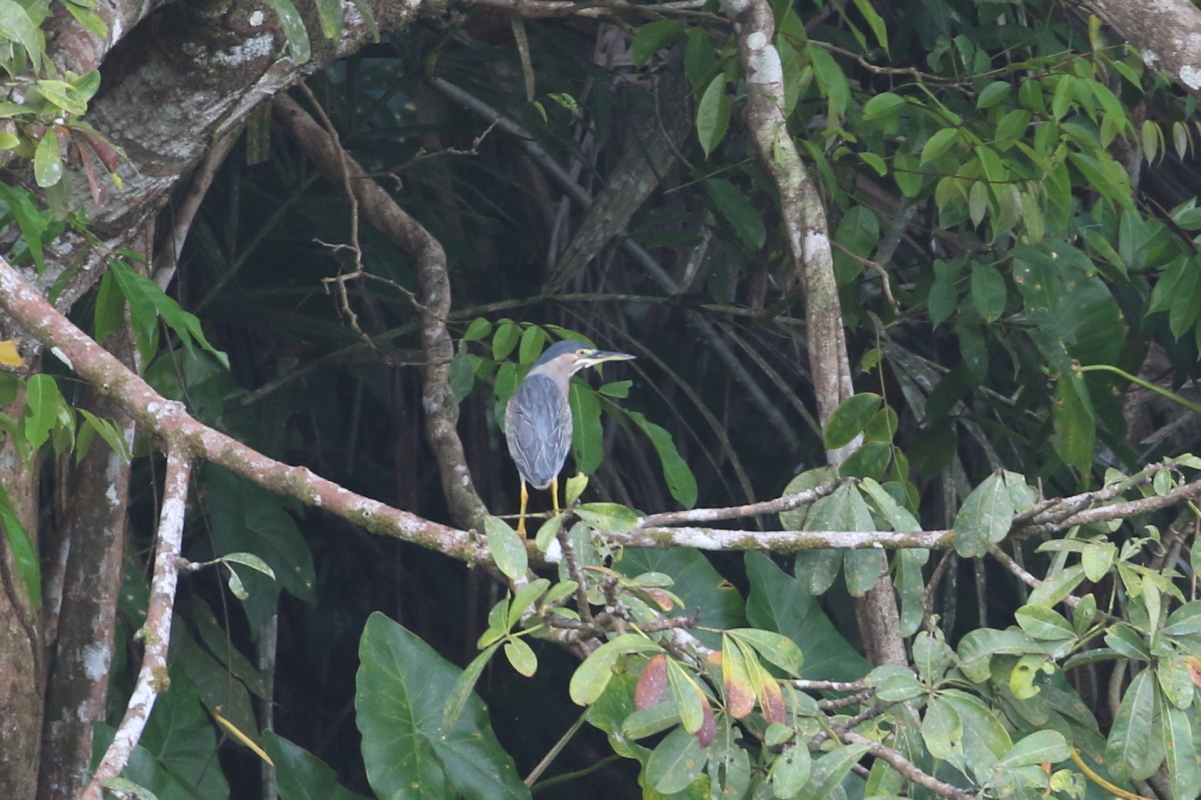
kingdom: Animalia
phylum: Chordata
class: Aves
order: Pelecaniformes
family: Ardeidae
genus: Butorides
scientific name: Butorides striata
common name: Striated heron
